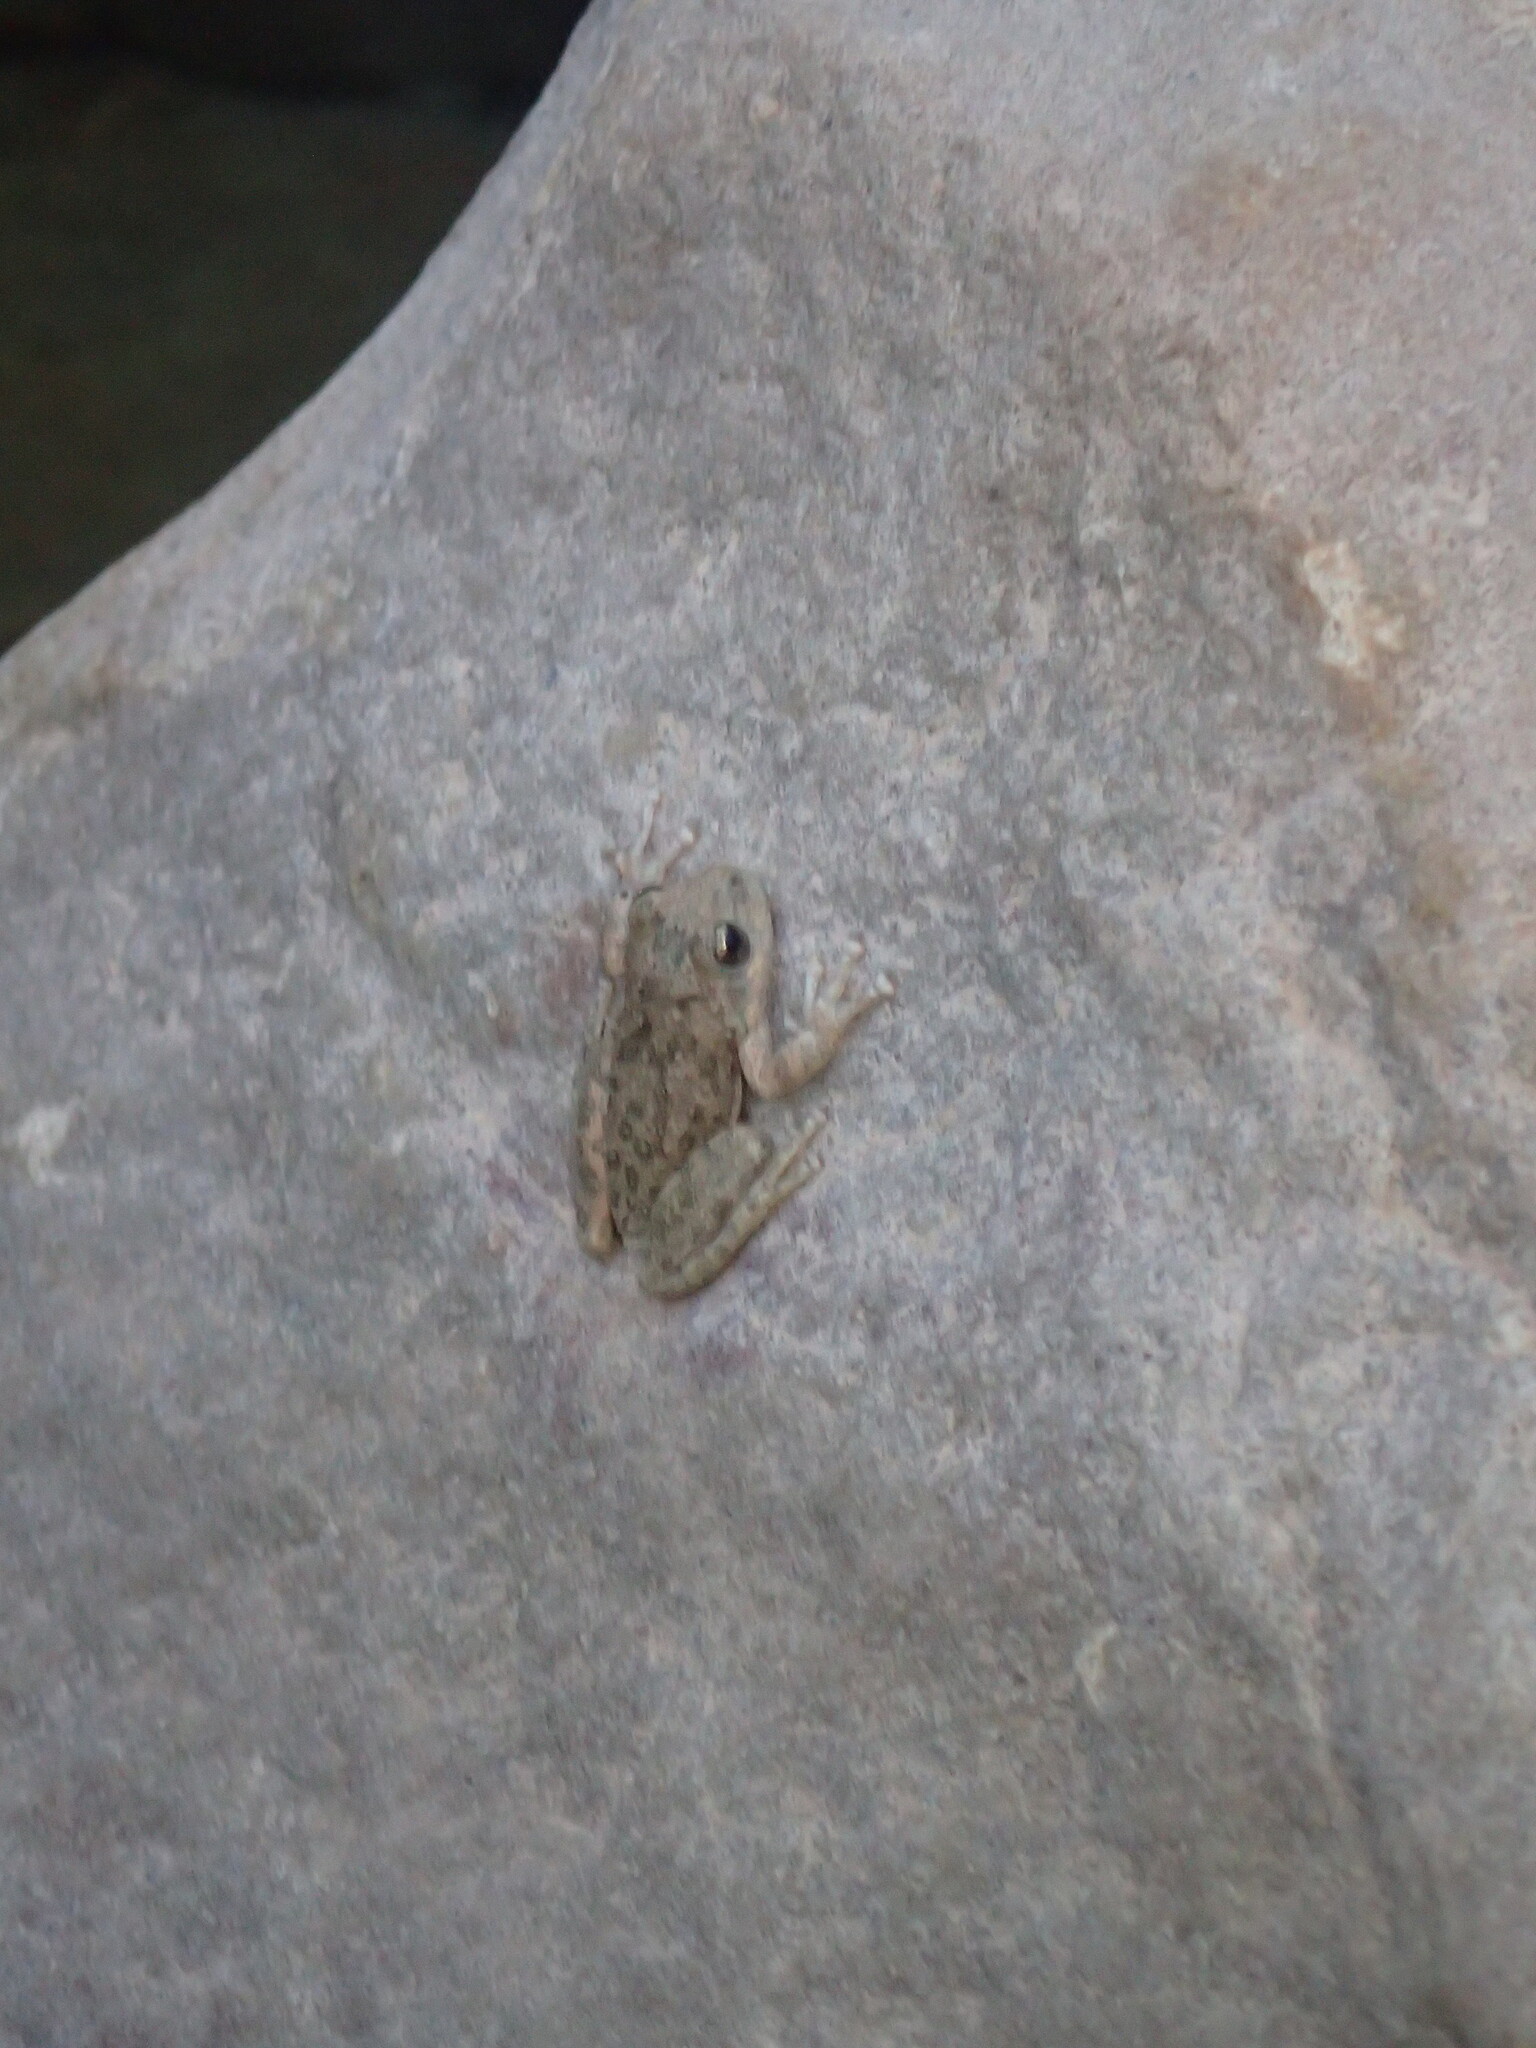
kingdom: Animalia
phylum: Chordata
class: Amphibia
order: Anura
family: Hylidae
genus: Pseudacris
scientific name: Pseudacris cadaverina
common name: California chorus frog
